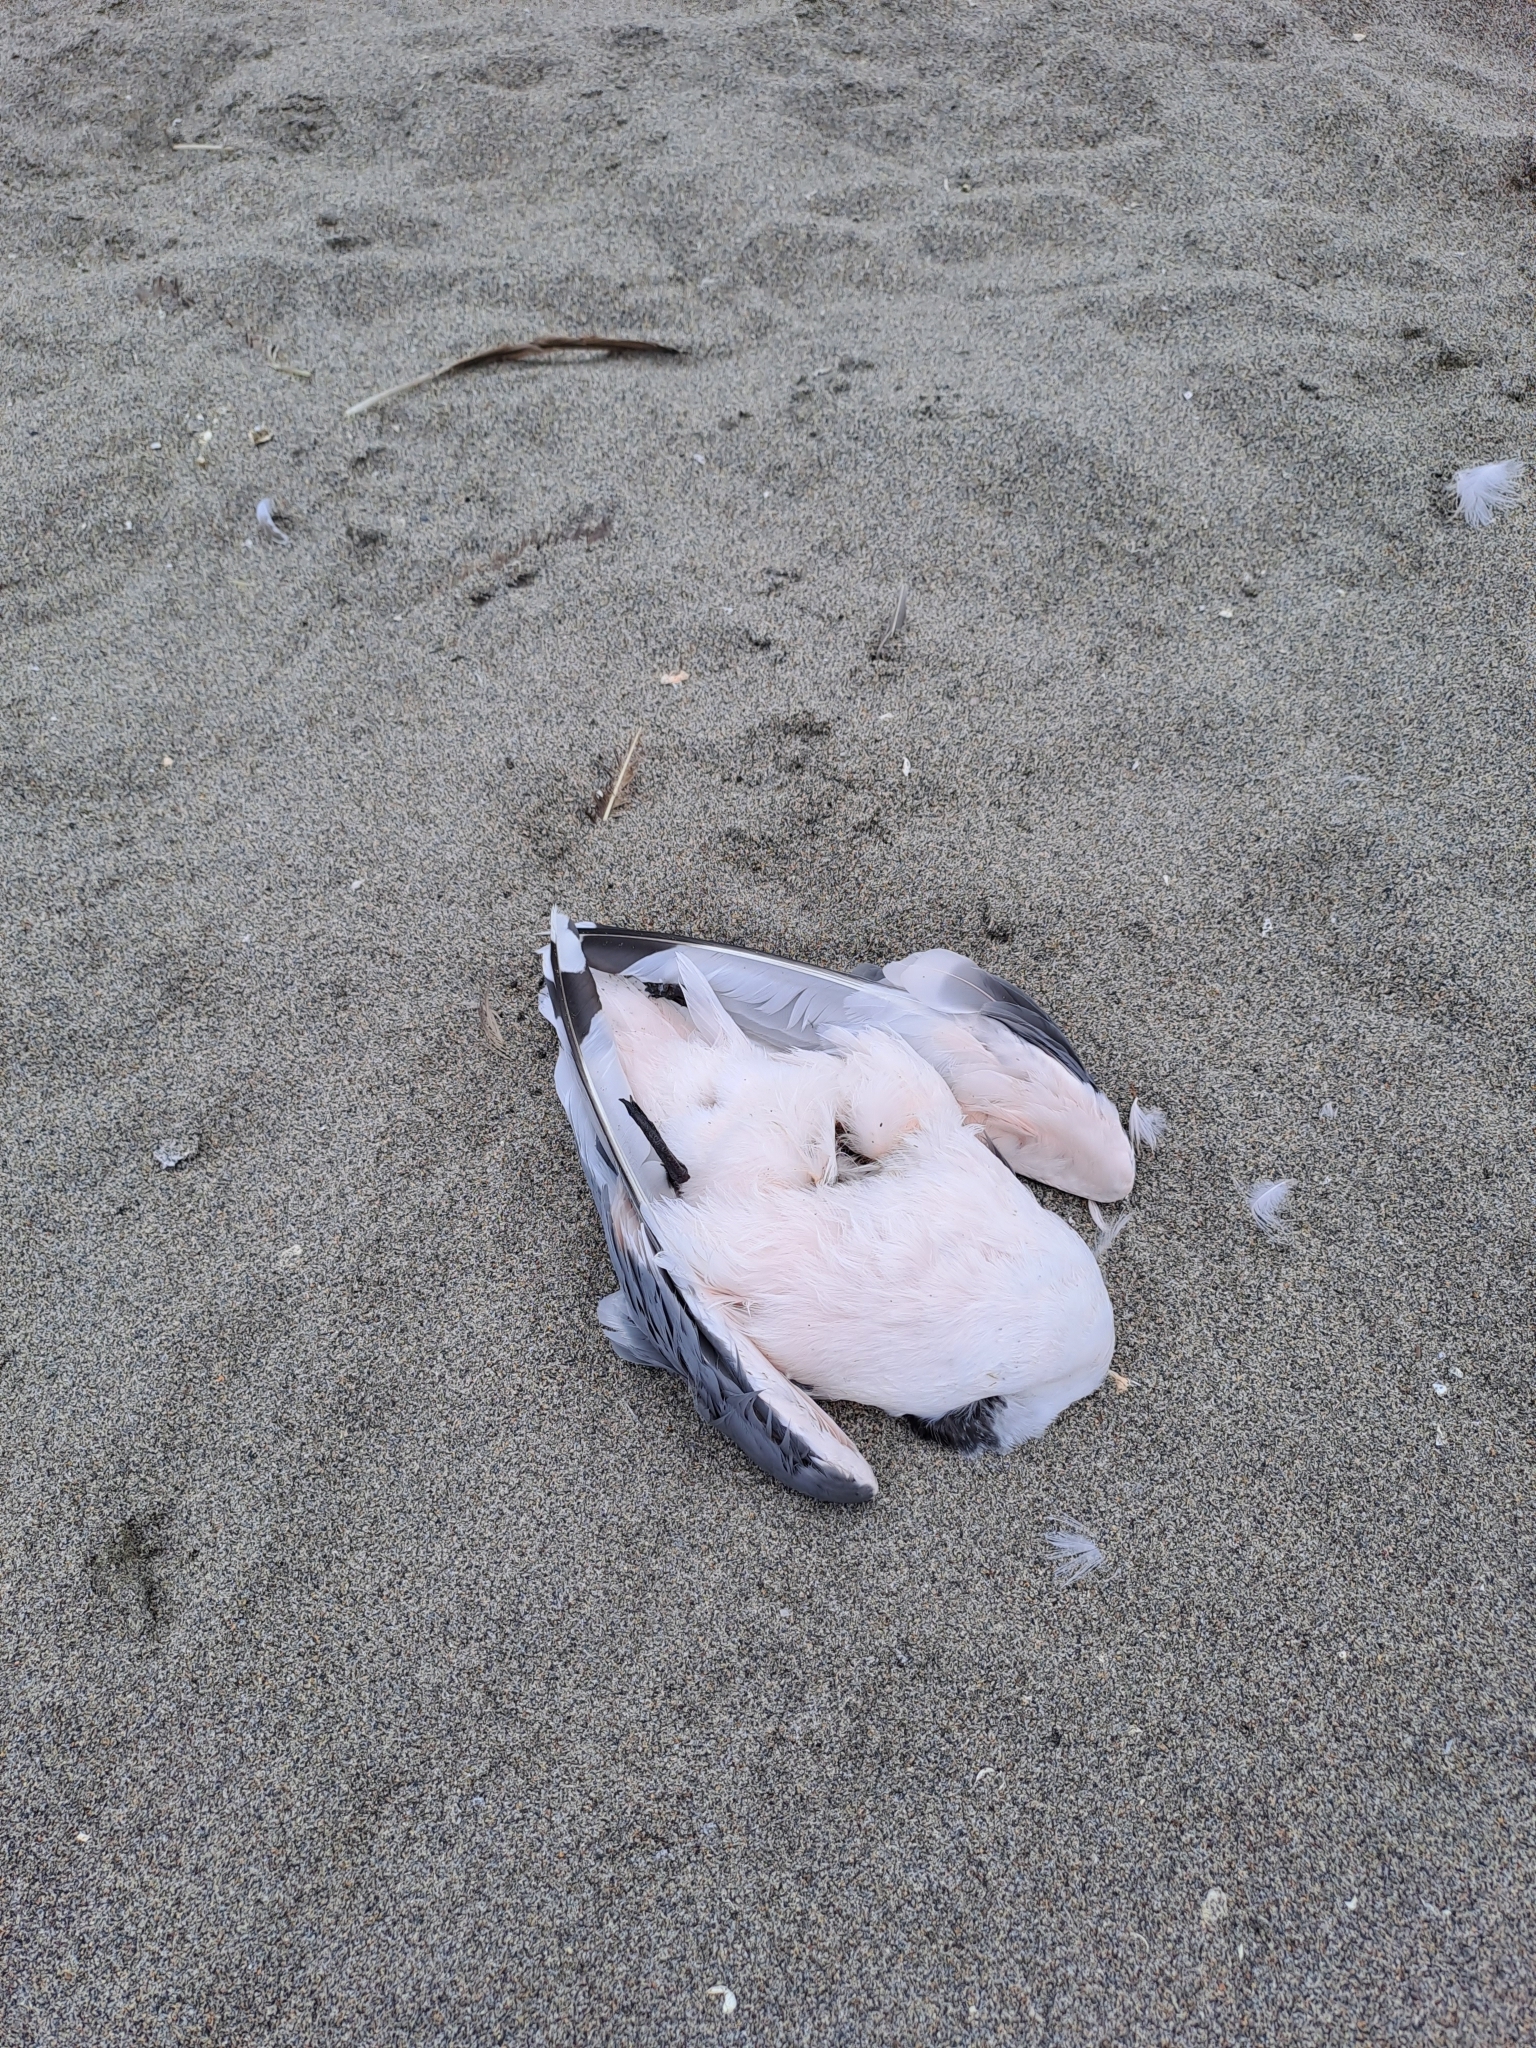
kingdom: Animalia
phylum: Chordata
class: Aves
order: Charadriiformes
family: Laridae
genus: Leucophaeus
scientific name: Leucophaeus pipixcan
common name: Franklin's gull
